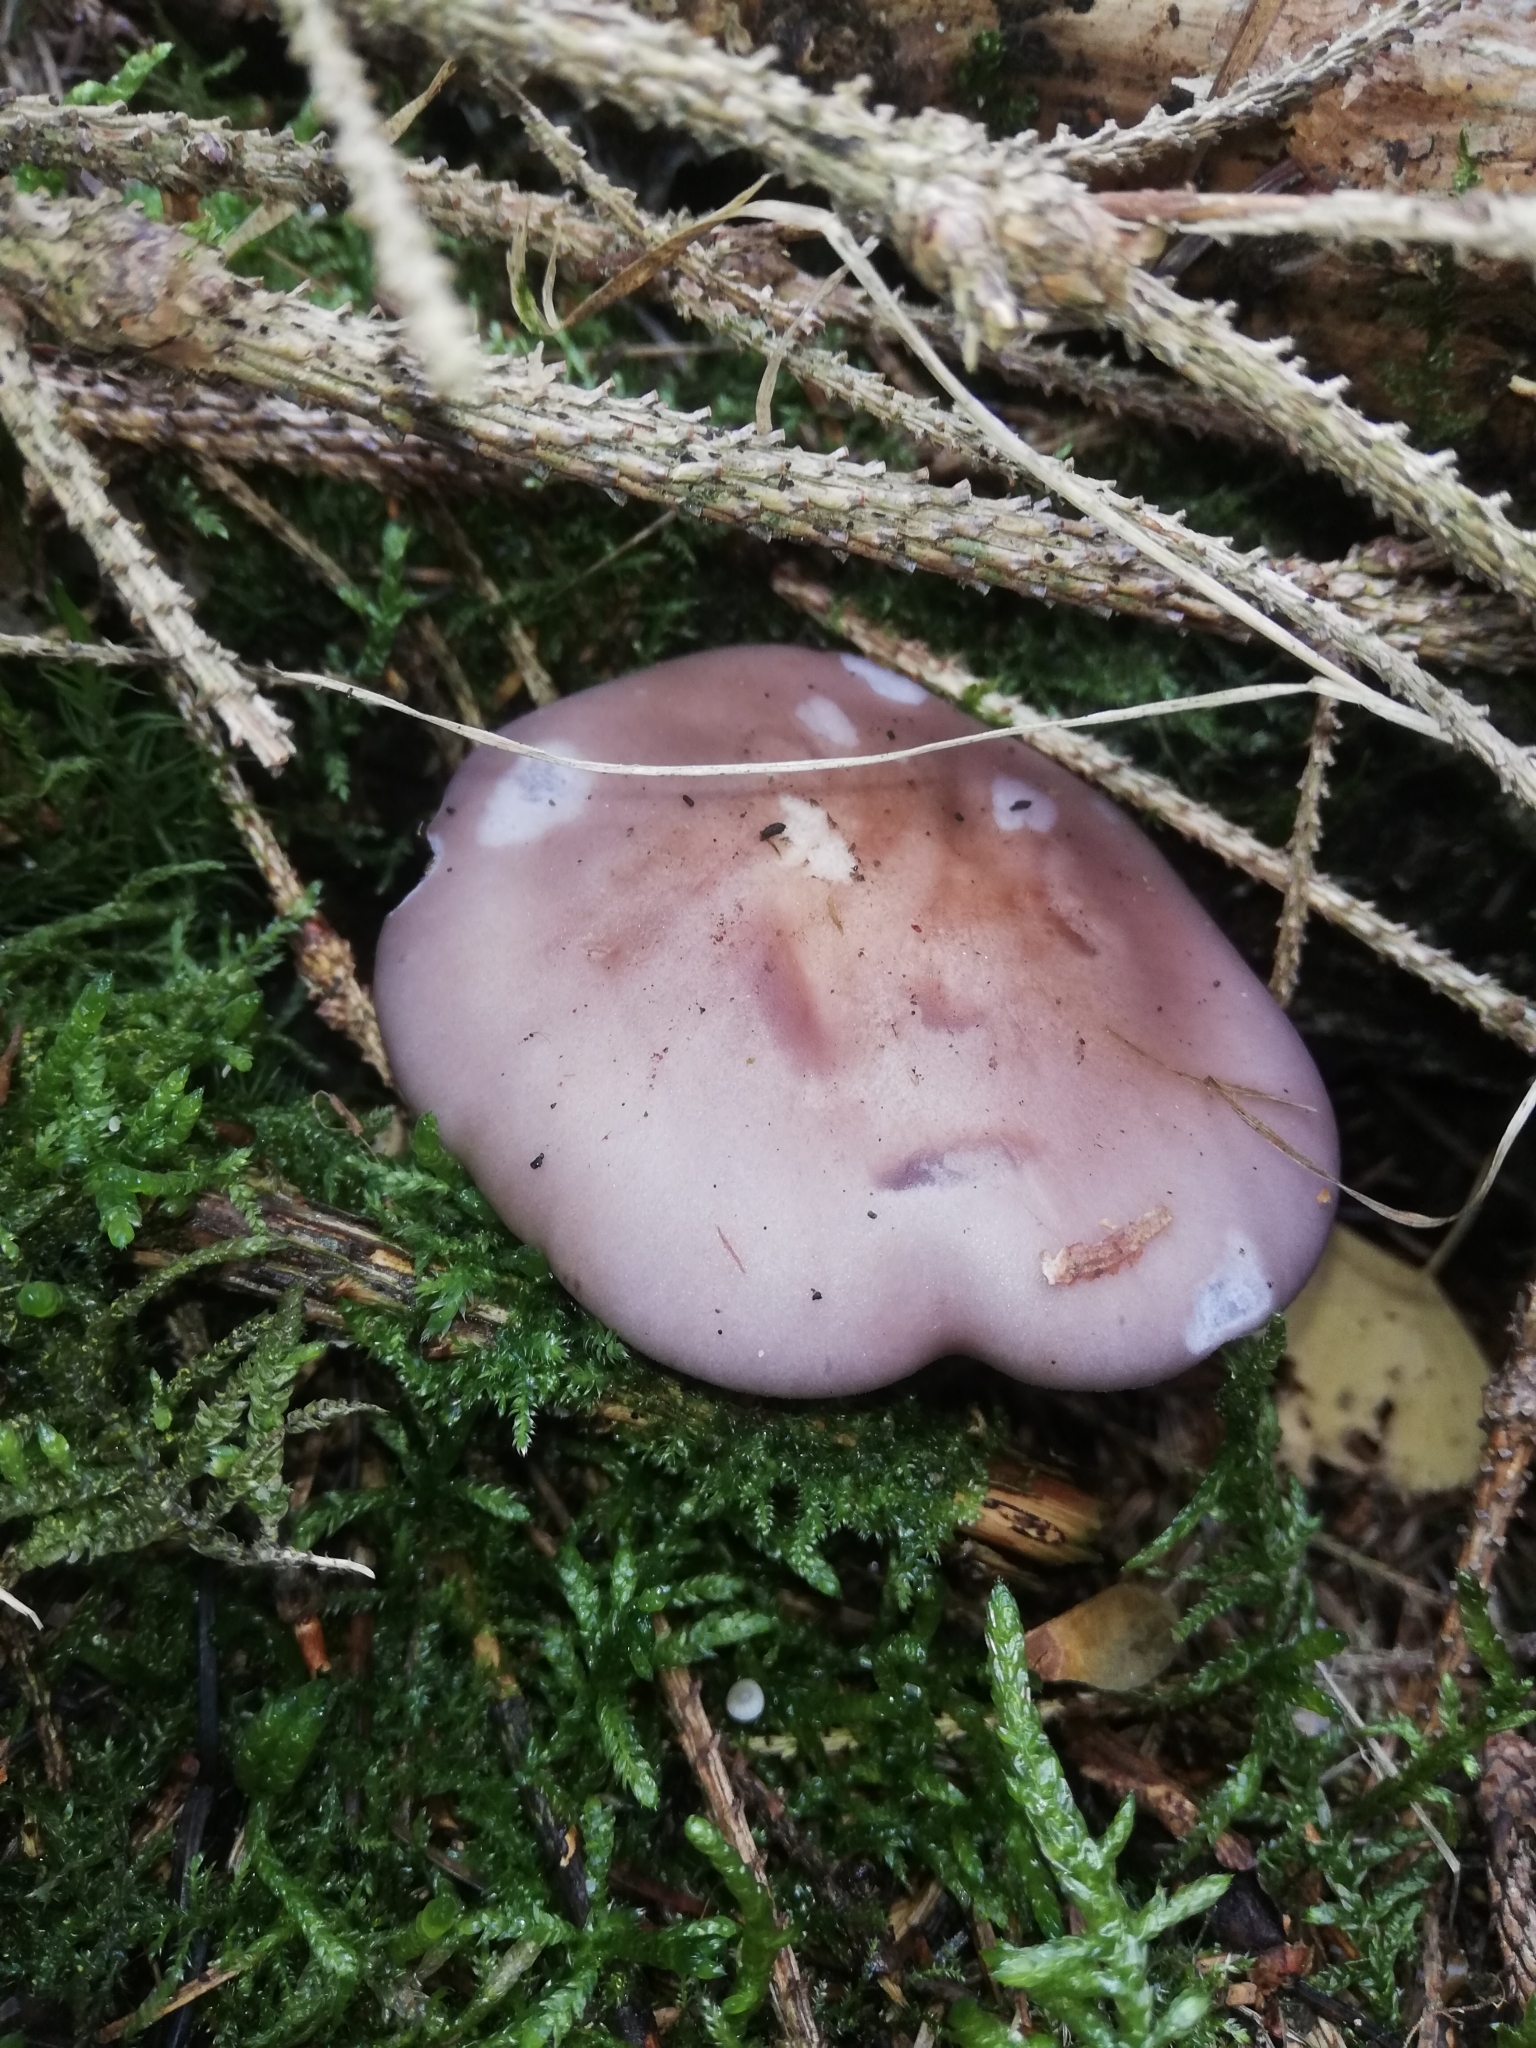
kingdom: Fungi
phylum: Basidiomycota
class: Agaricomycetes
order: Agaricales
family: Tricholomataceae
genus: Collybia
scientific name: Collybia
